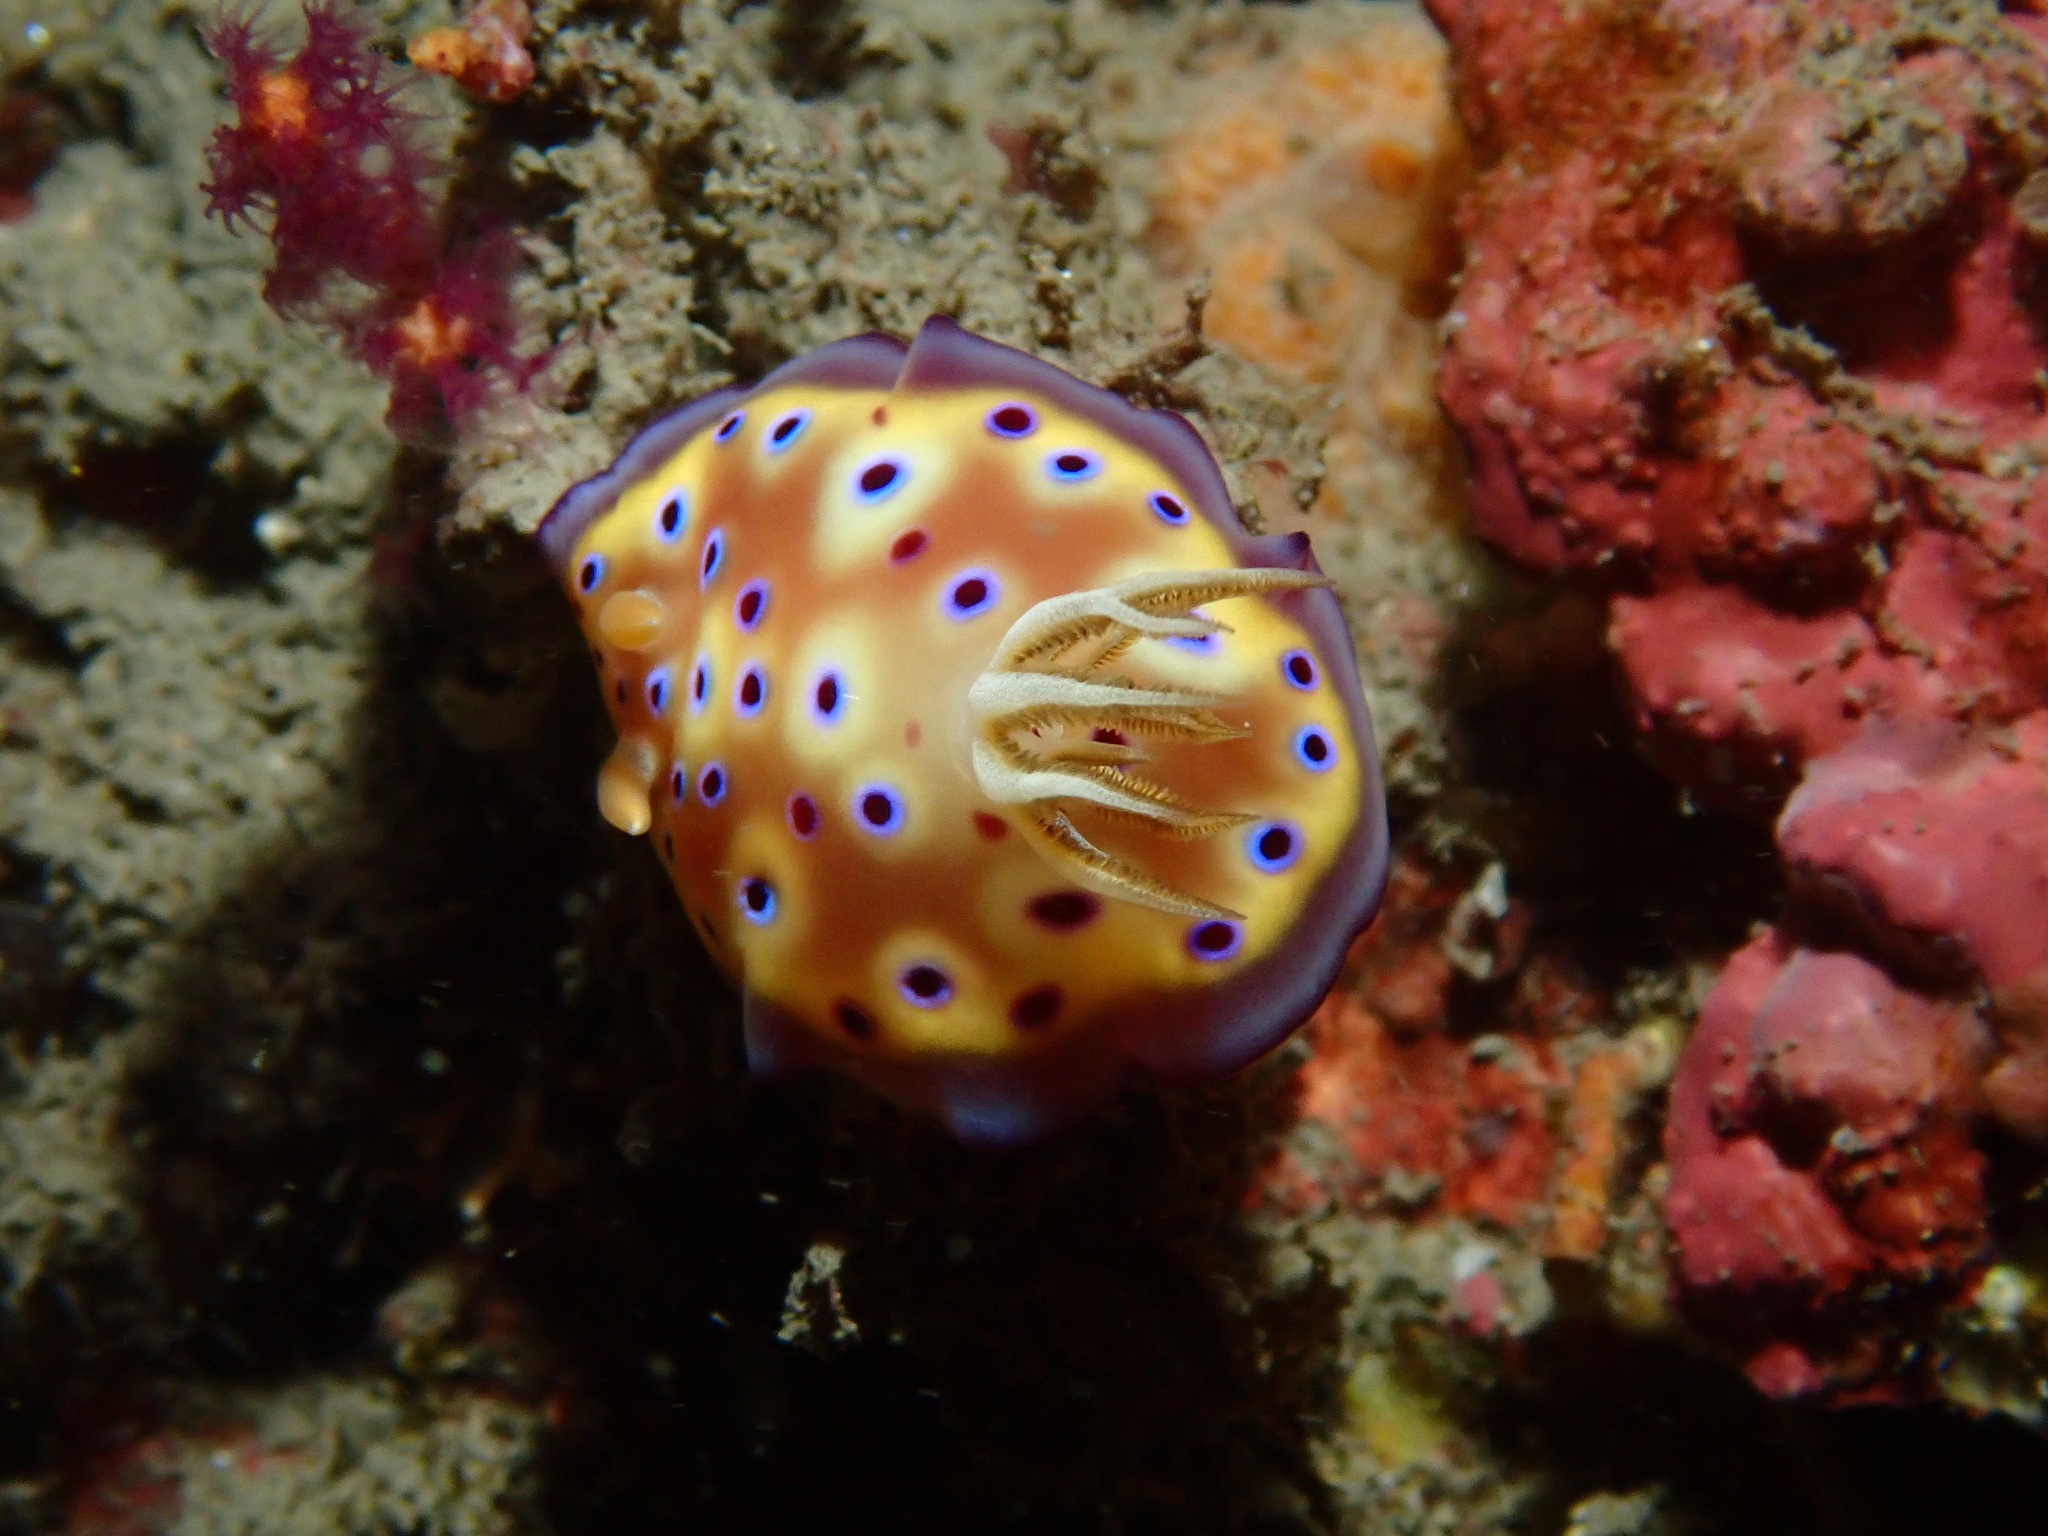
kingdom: Animalia
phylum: Mollusca
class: Gastropoda
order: Nudibranchia
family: Chromodorididae
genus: Goniobranchus
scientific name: Goniobranchus kuniei
